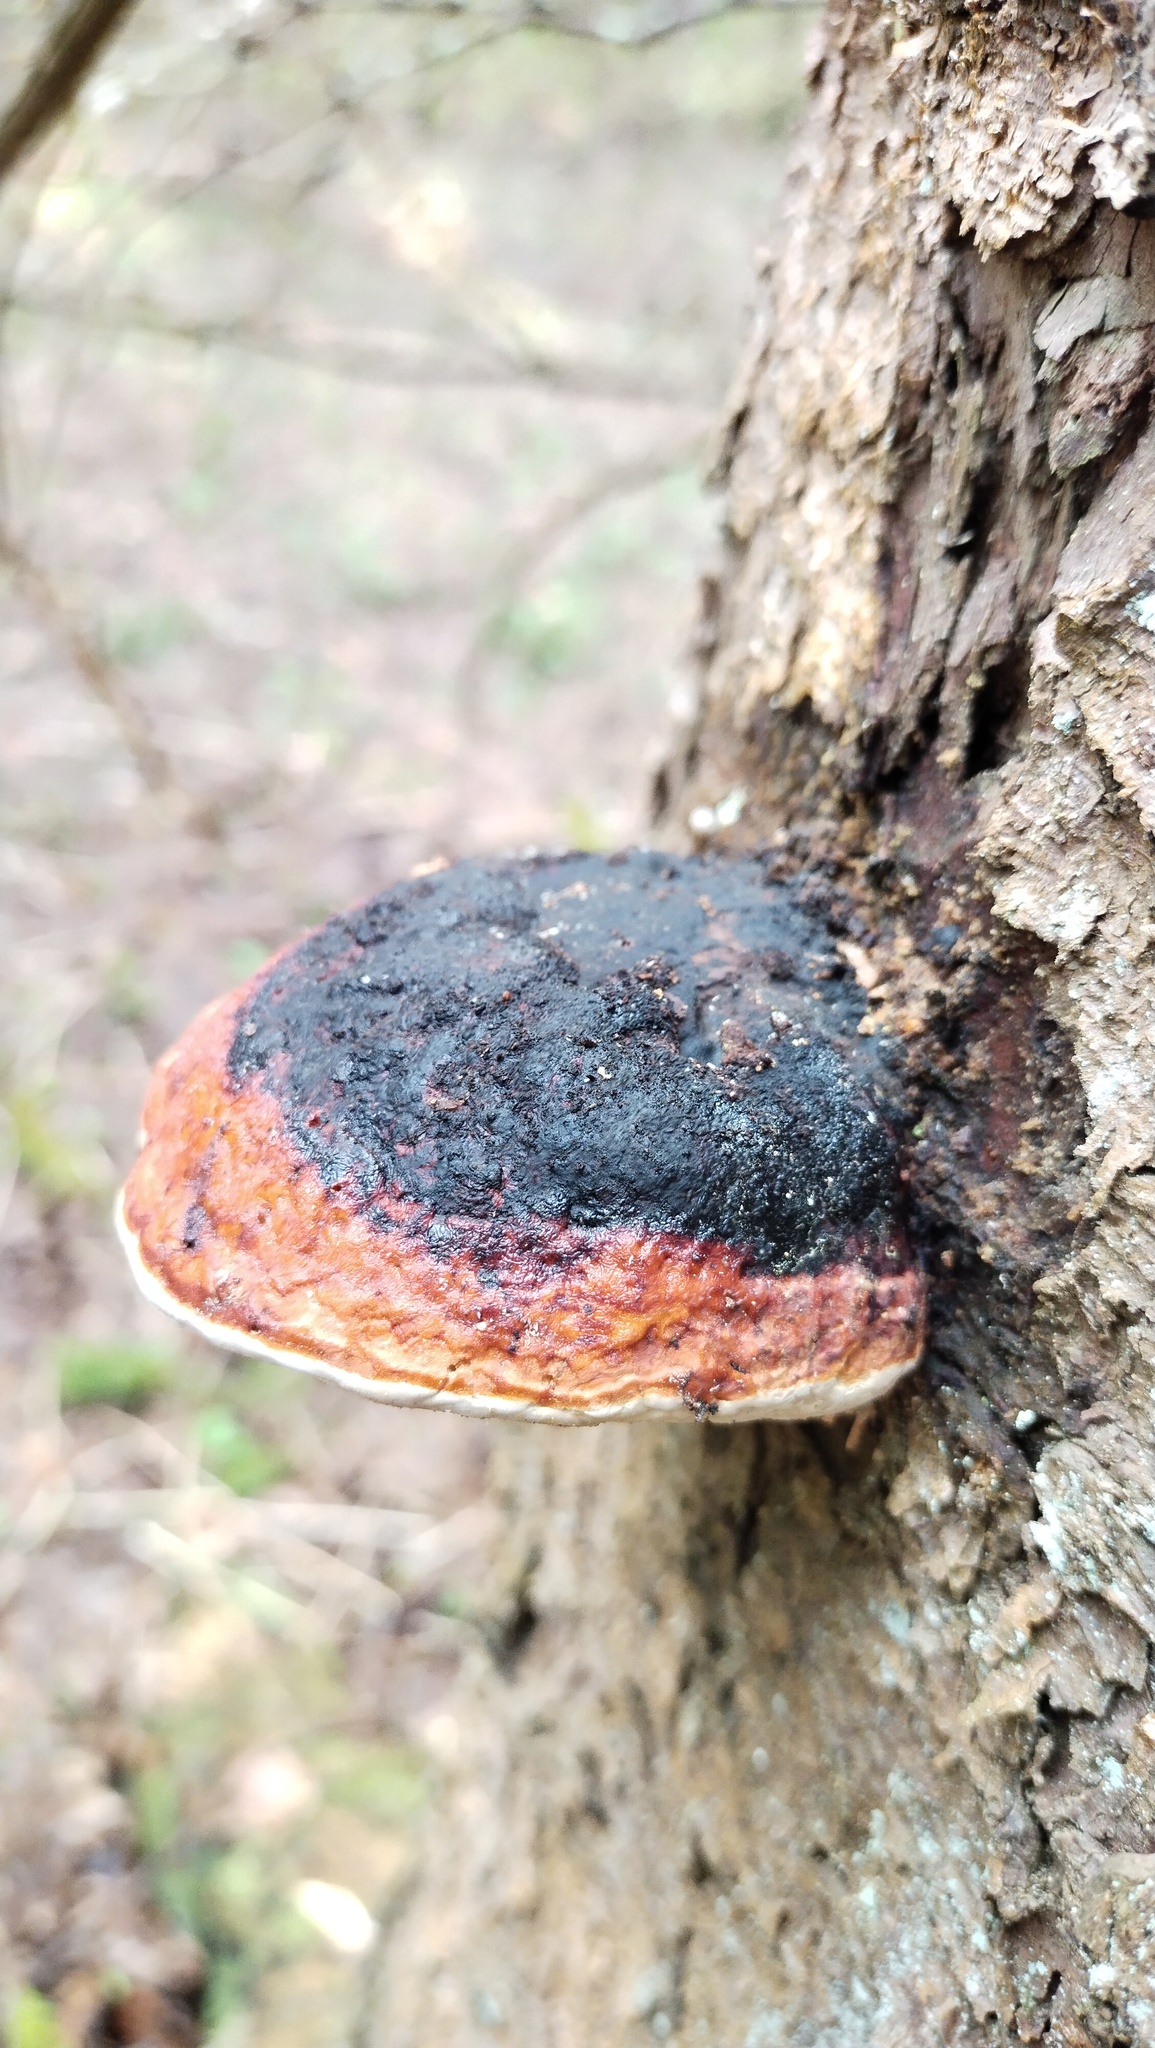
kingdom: Fungi
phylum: Basidiomycota
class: Agaricomycetes
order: Polyporales
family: Fomitopsidaceae
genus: Fomitopsis
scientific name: Fomitopsis pinicola
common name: Red-belted bracket
